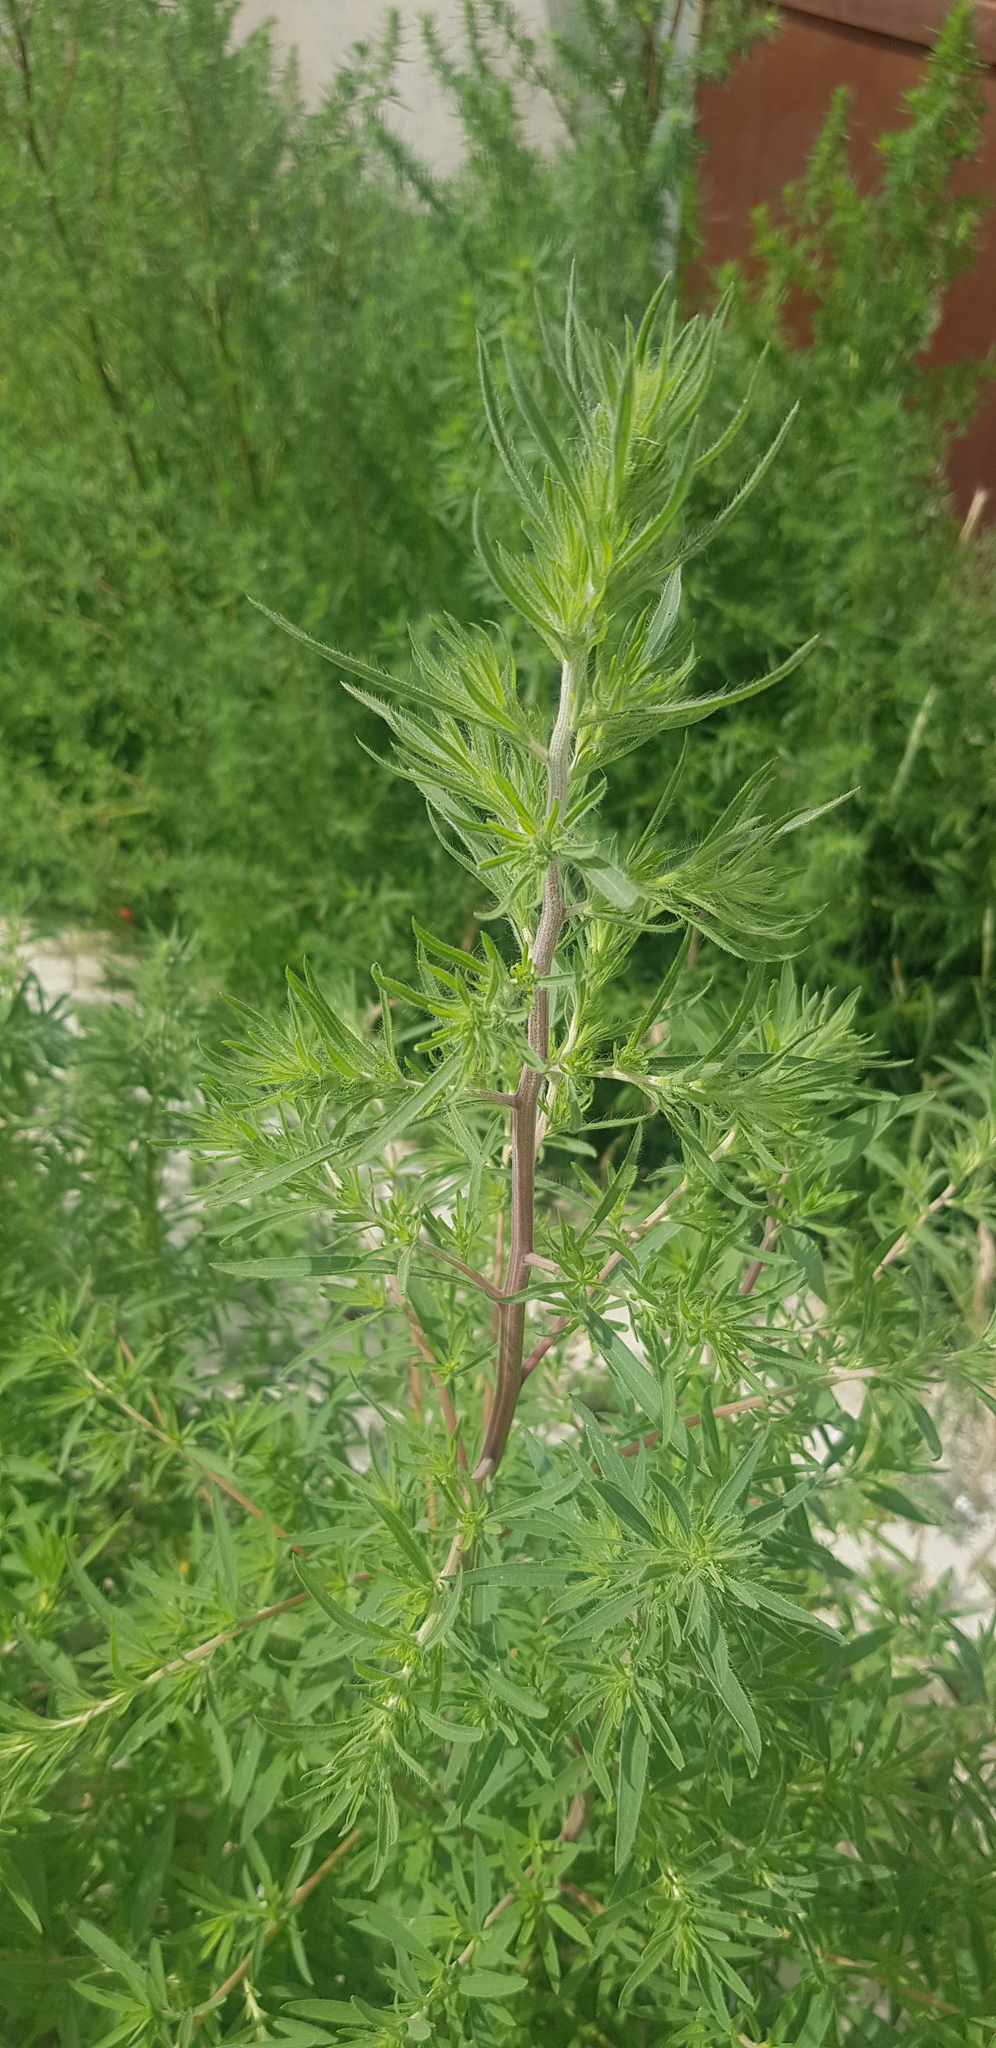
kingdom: Plantae
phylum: Tracheophyta
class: Magnoliopsida
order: Caryophyllales
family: Amaranthaceae
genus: Bassia
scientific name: Bassia scoparia
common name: Belvedere
